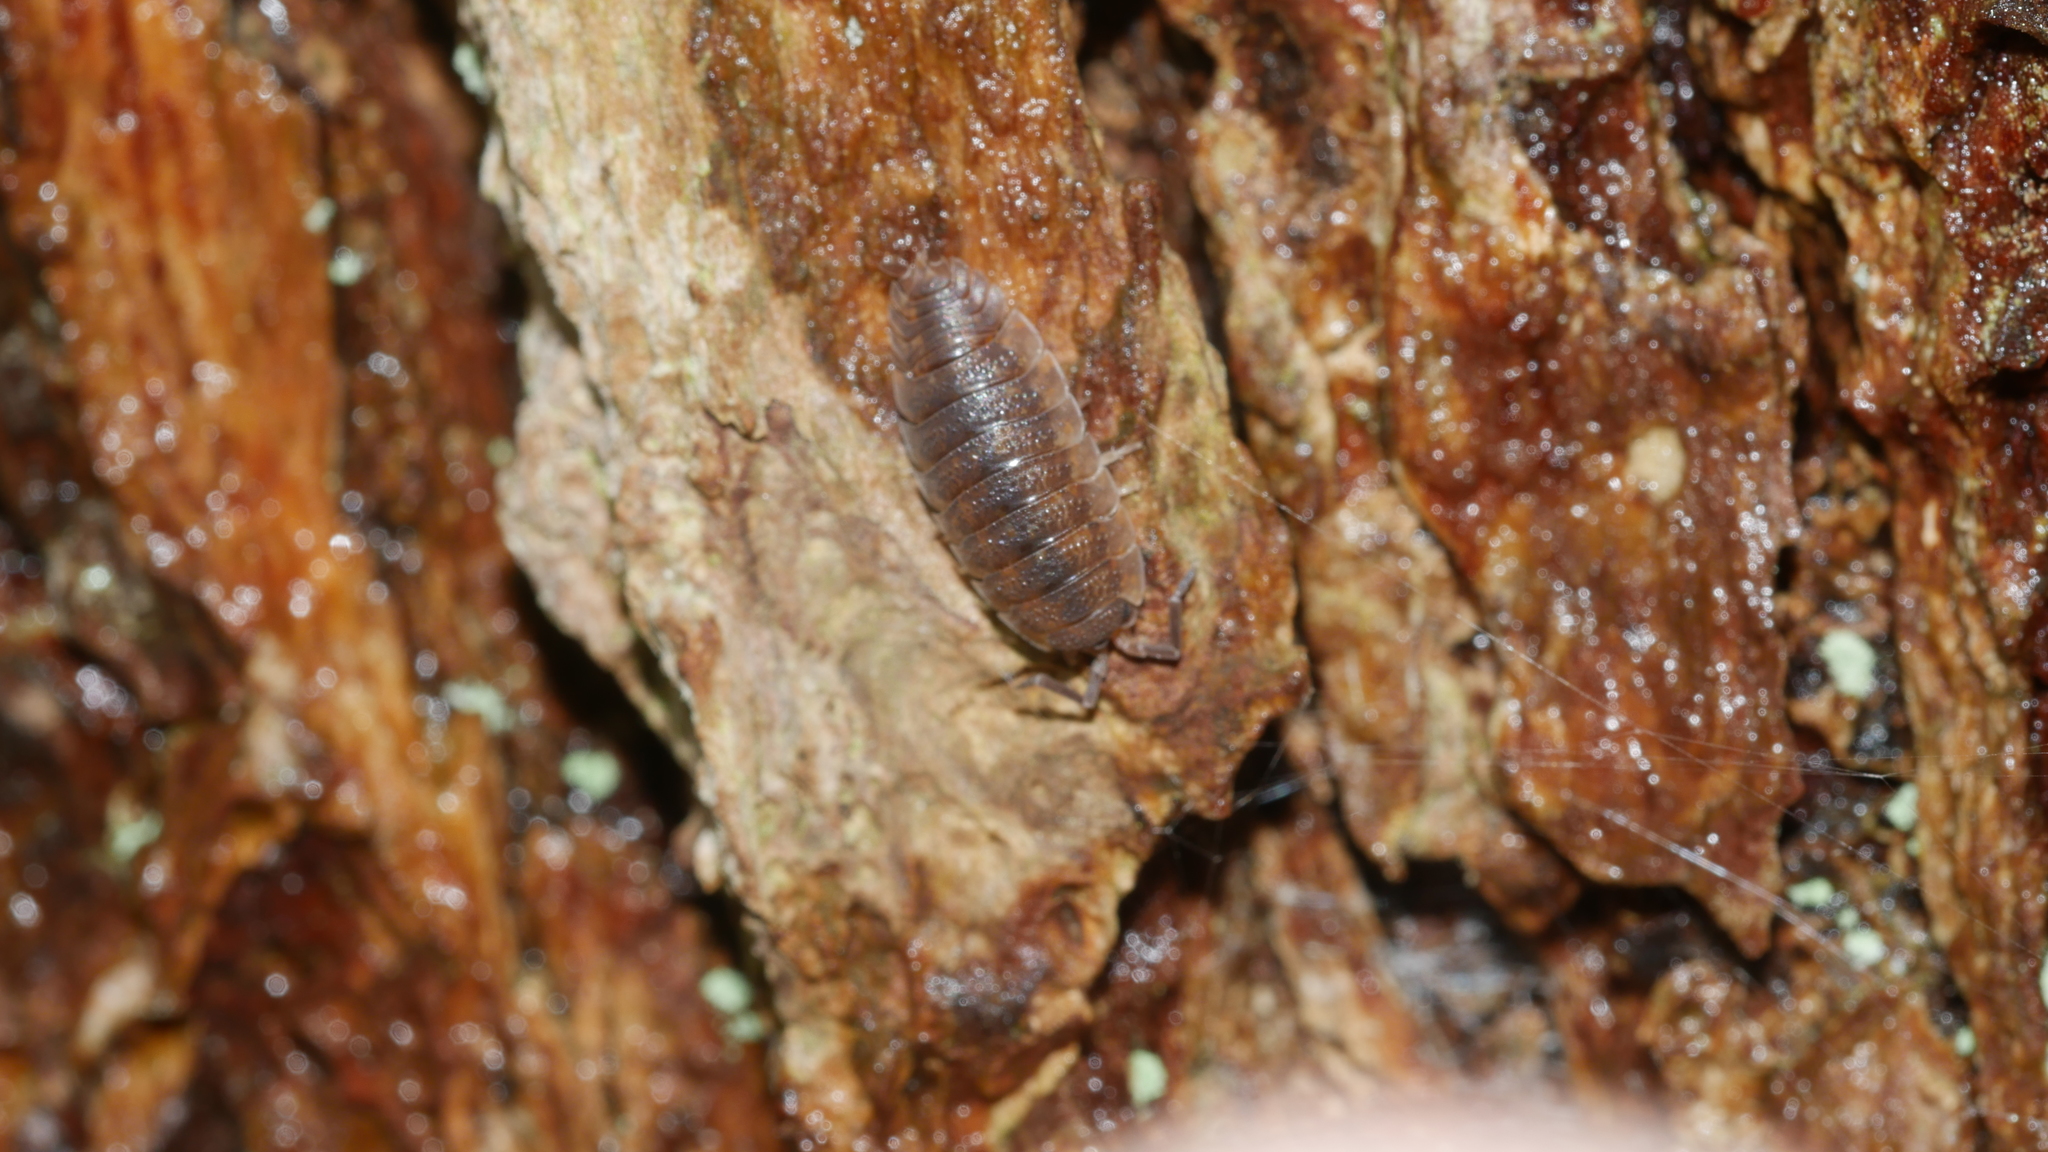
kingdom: Animalia
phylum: Arthropoda
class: Malacostraca
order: Isopoda
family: Porcellionidae
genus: Porcellio
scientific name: Porcellio scaber
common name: Common rough woodlouse
